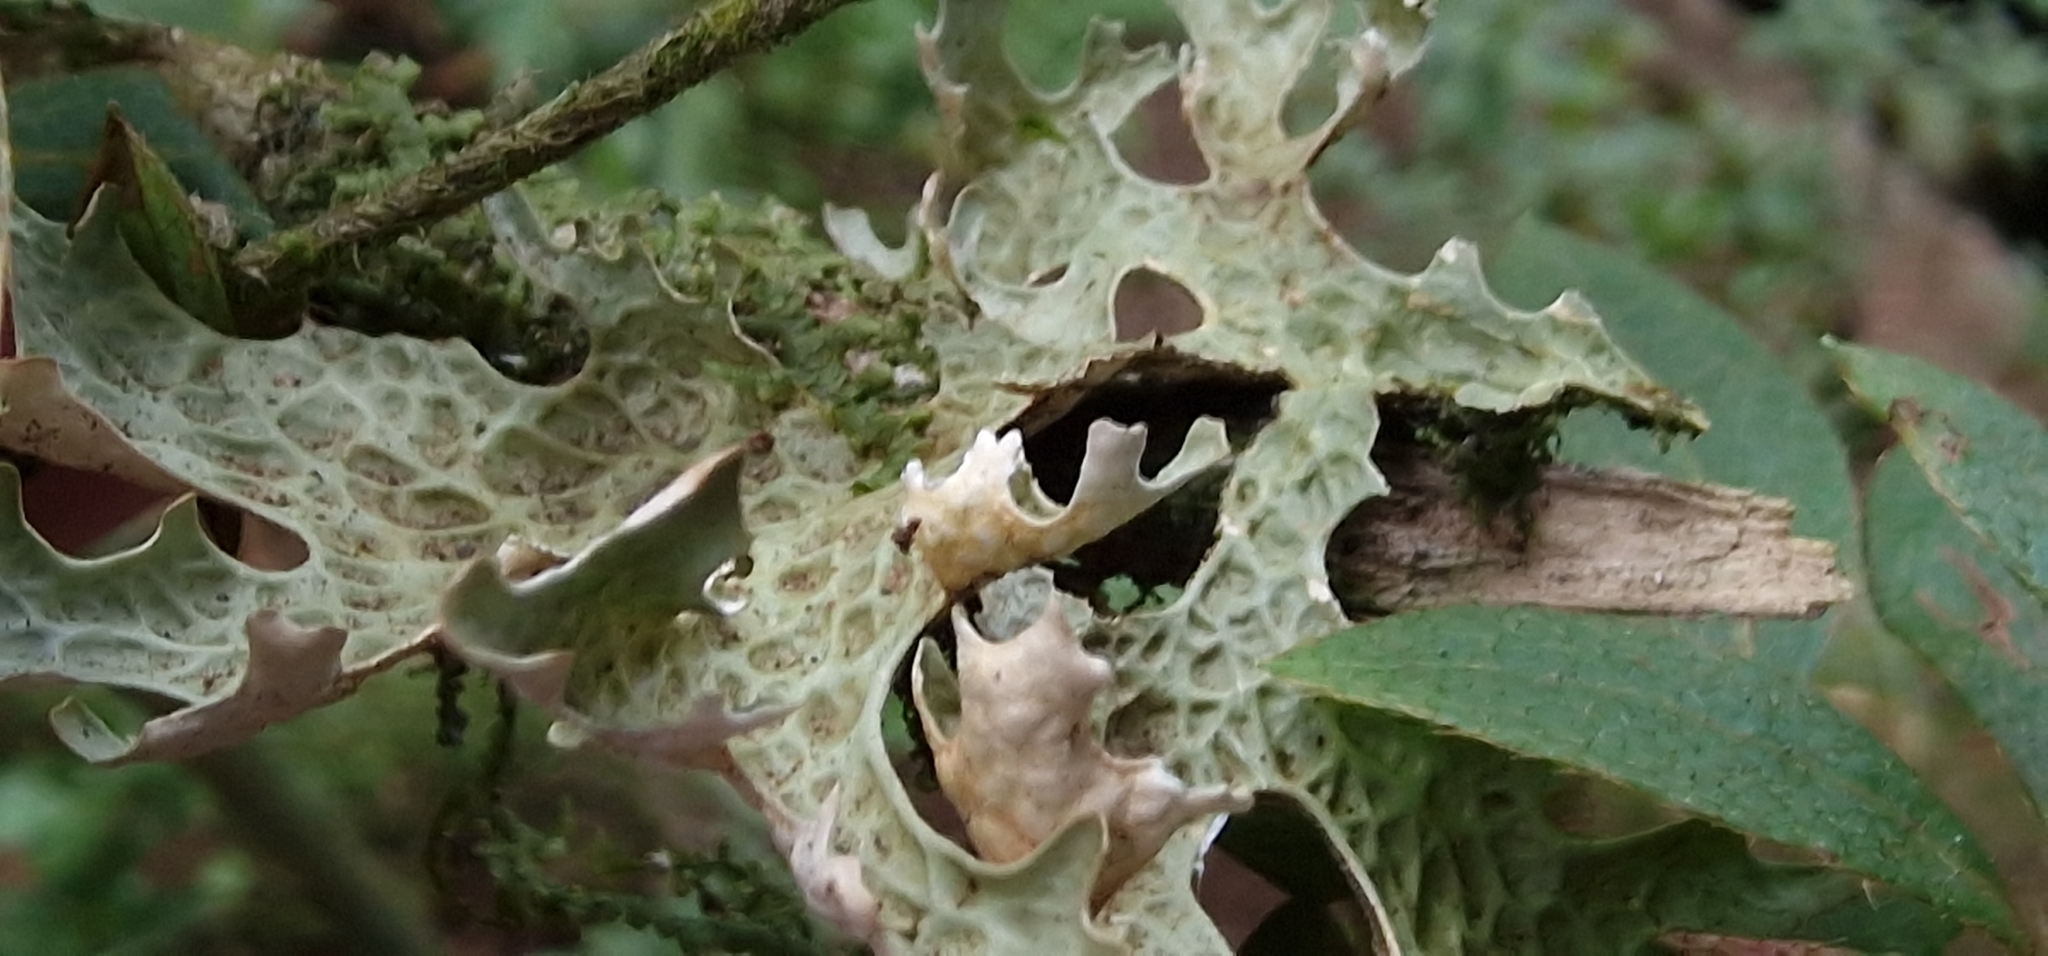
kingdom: Fungi
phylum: Ascomycota
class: Lecanoromycetes
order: Peltigerales
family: Lobariaceae
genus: Lobaria
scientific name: Lobaria pulmonaria
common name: Lungwort
